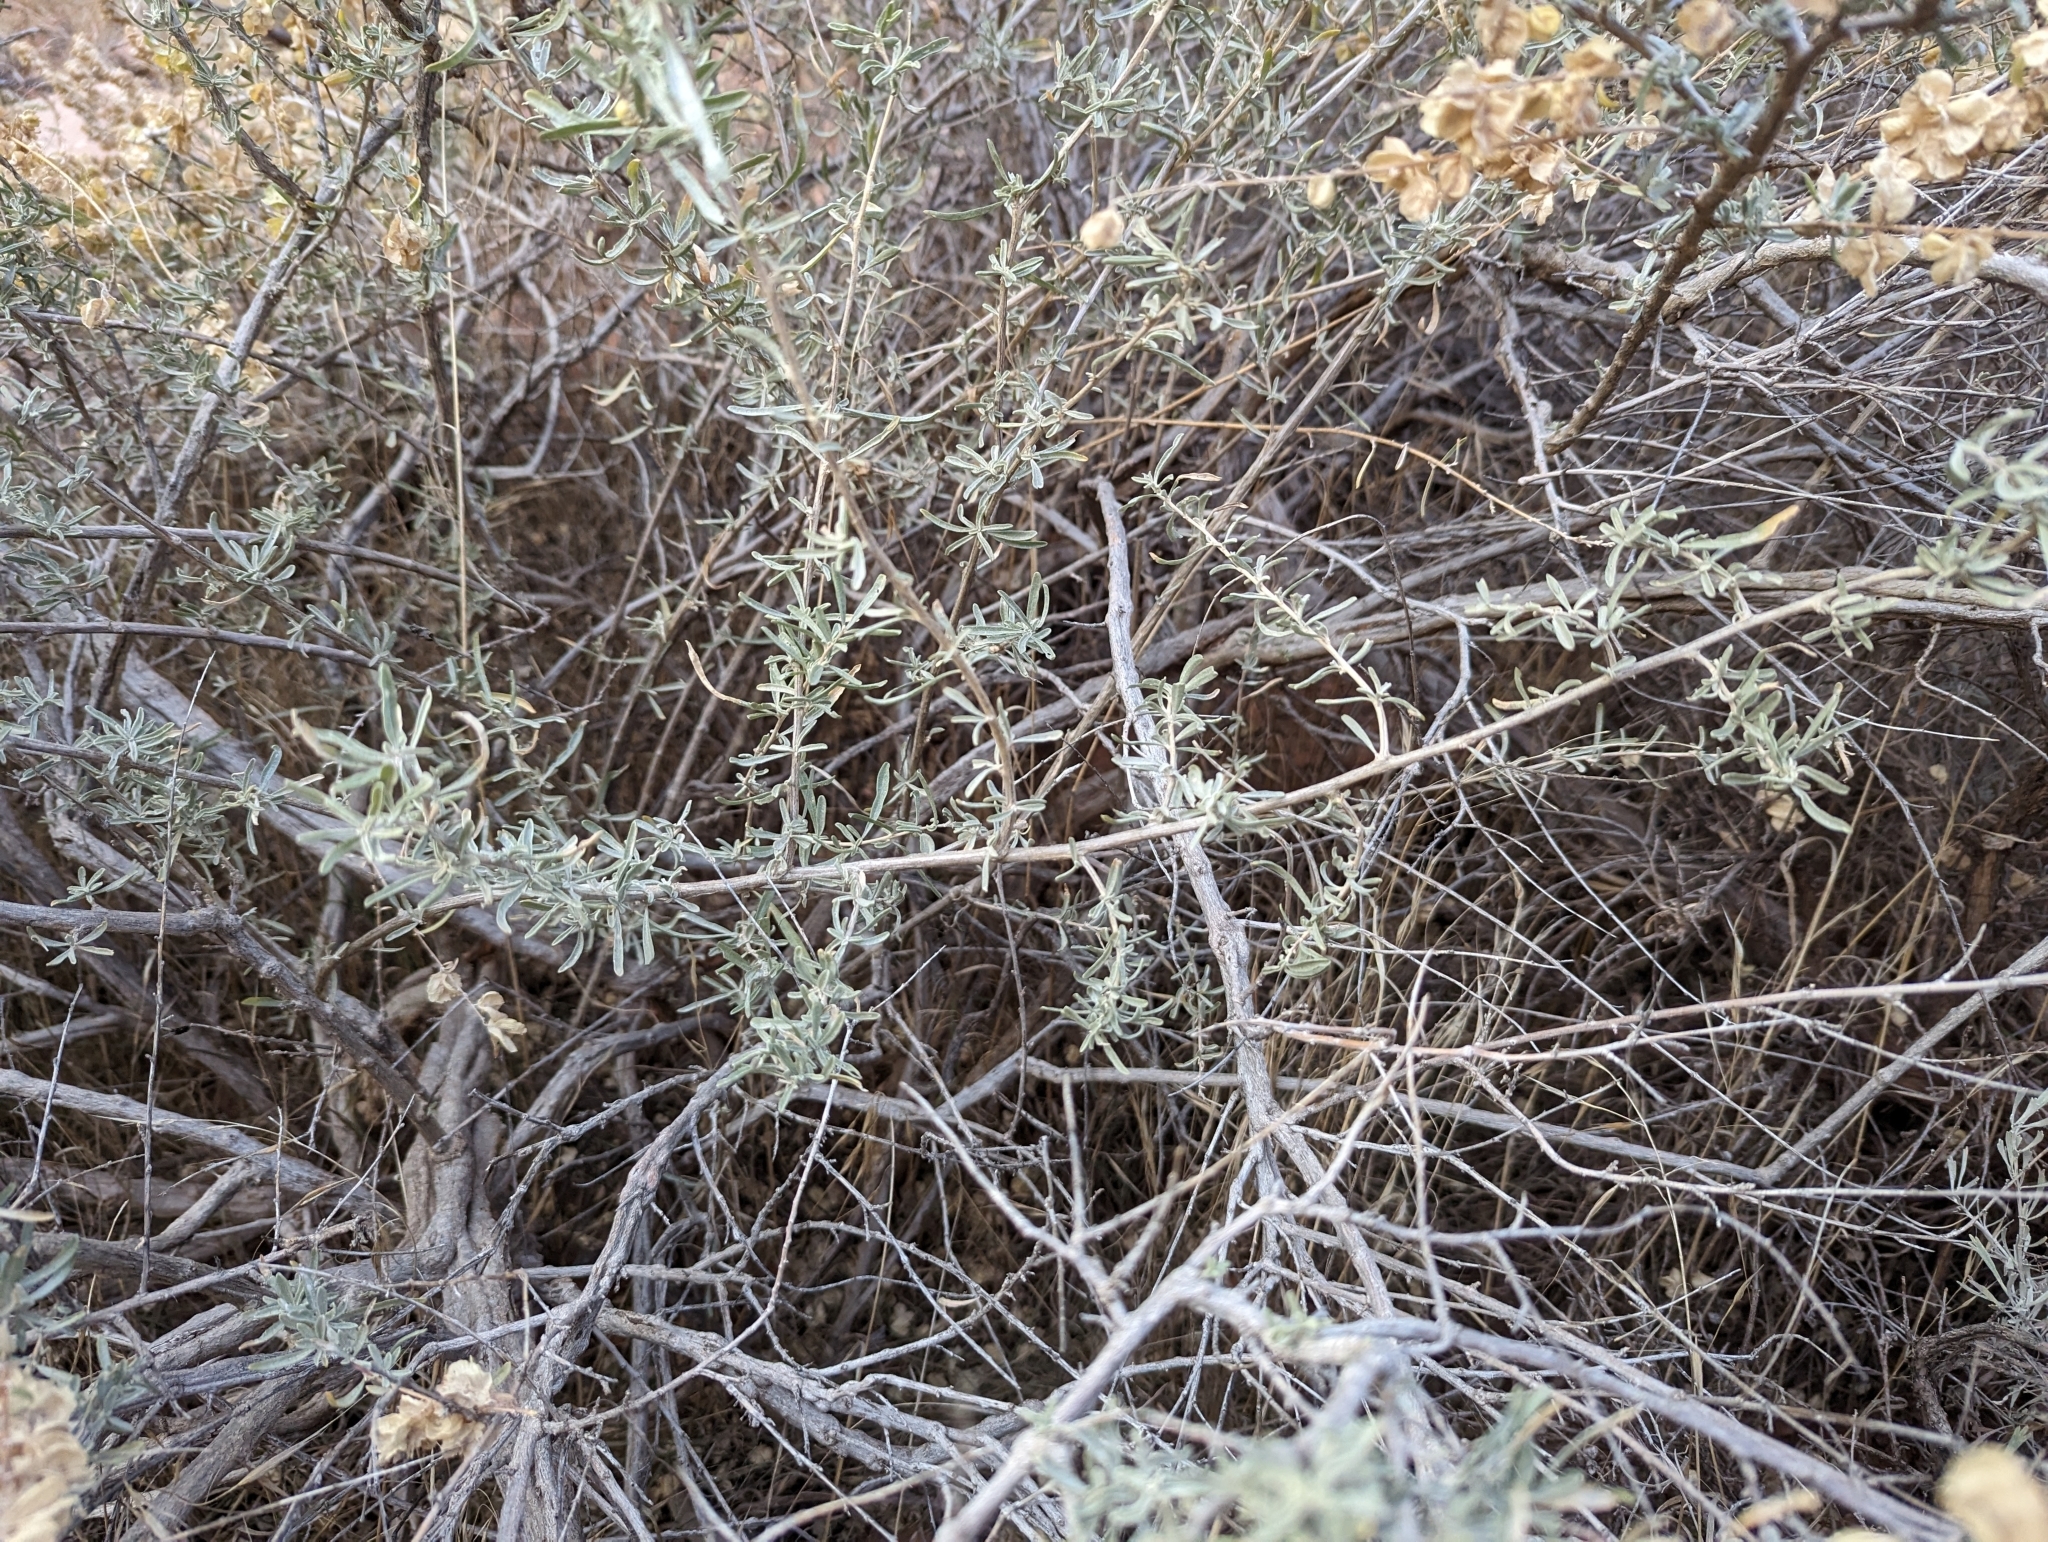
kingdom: Plantae
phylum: Tracheophyta
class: Magnoliopsida
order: Caryophyllales
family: Amaranthaceae
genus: Atriplex
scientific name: Atriplex canescens
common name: Four-wing saltbush
